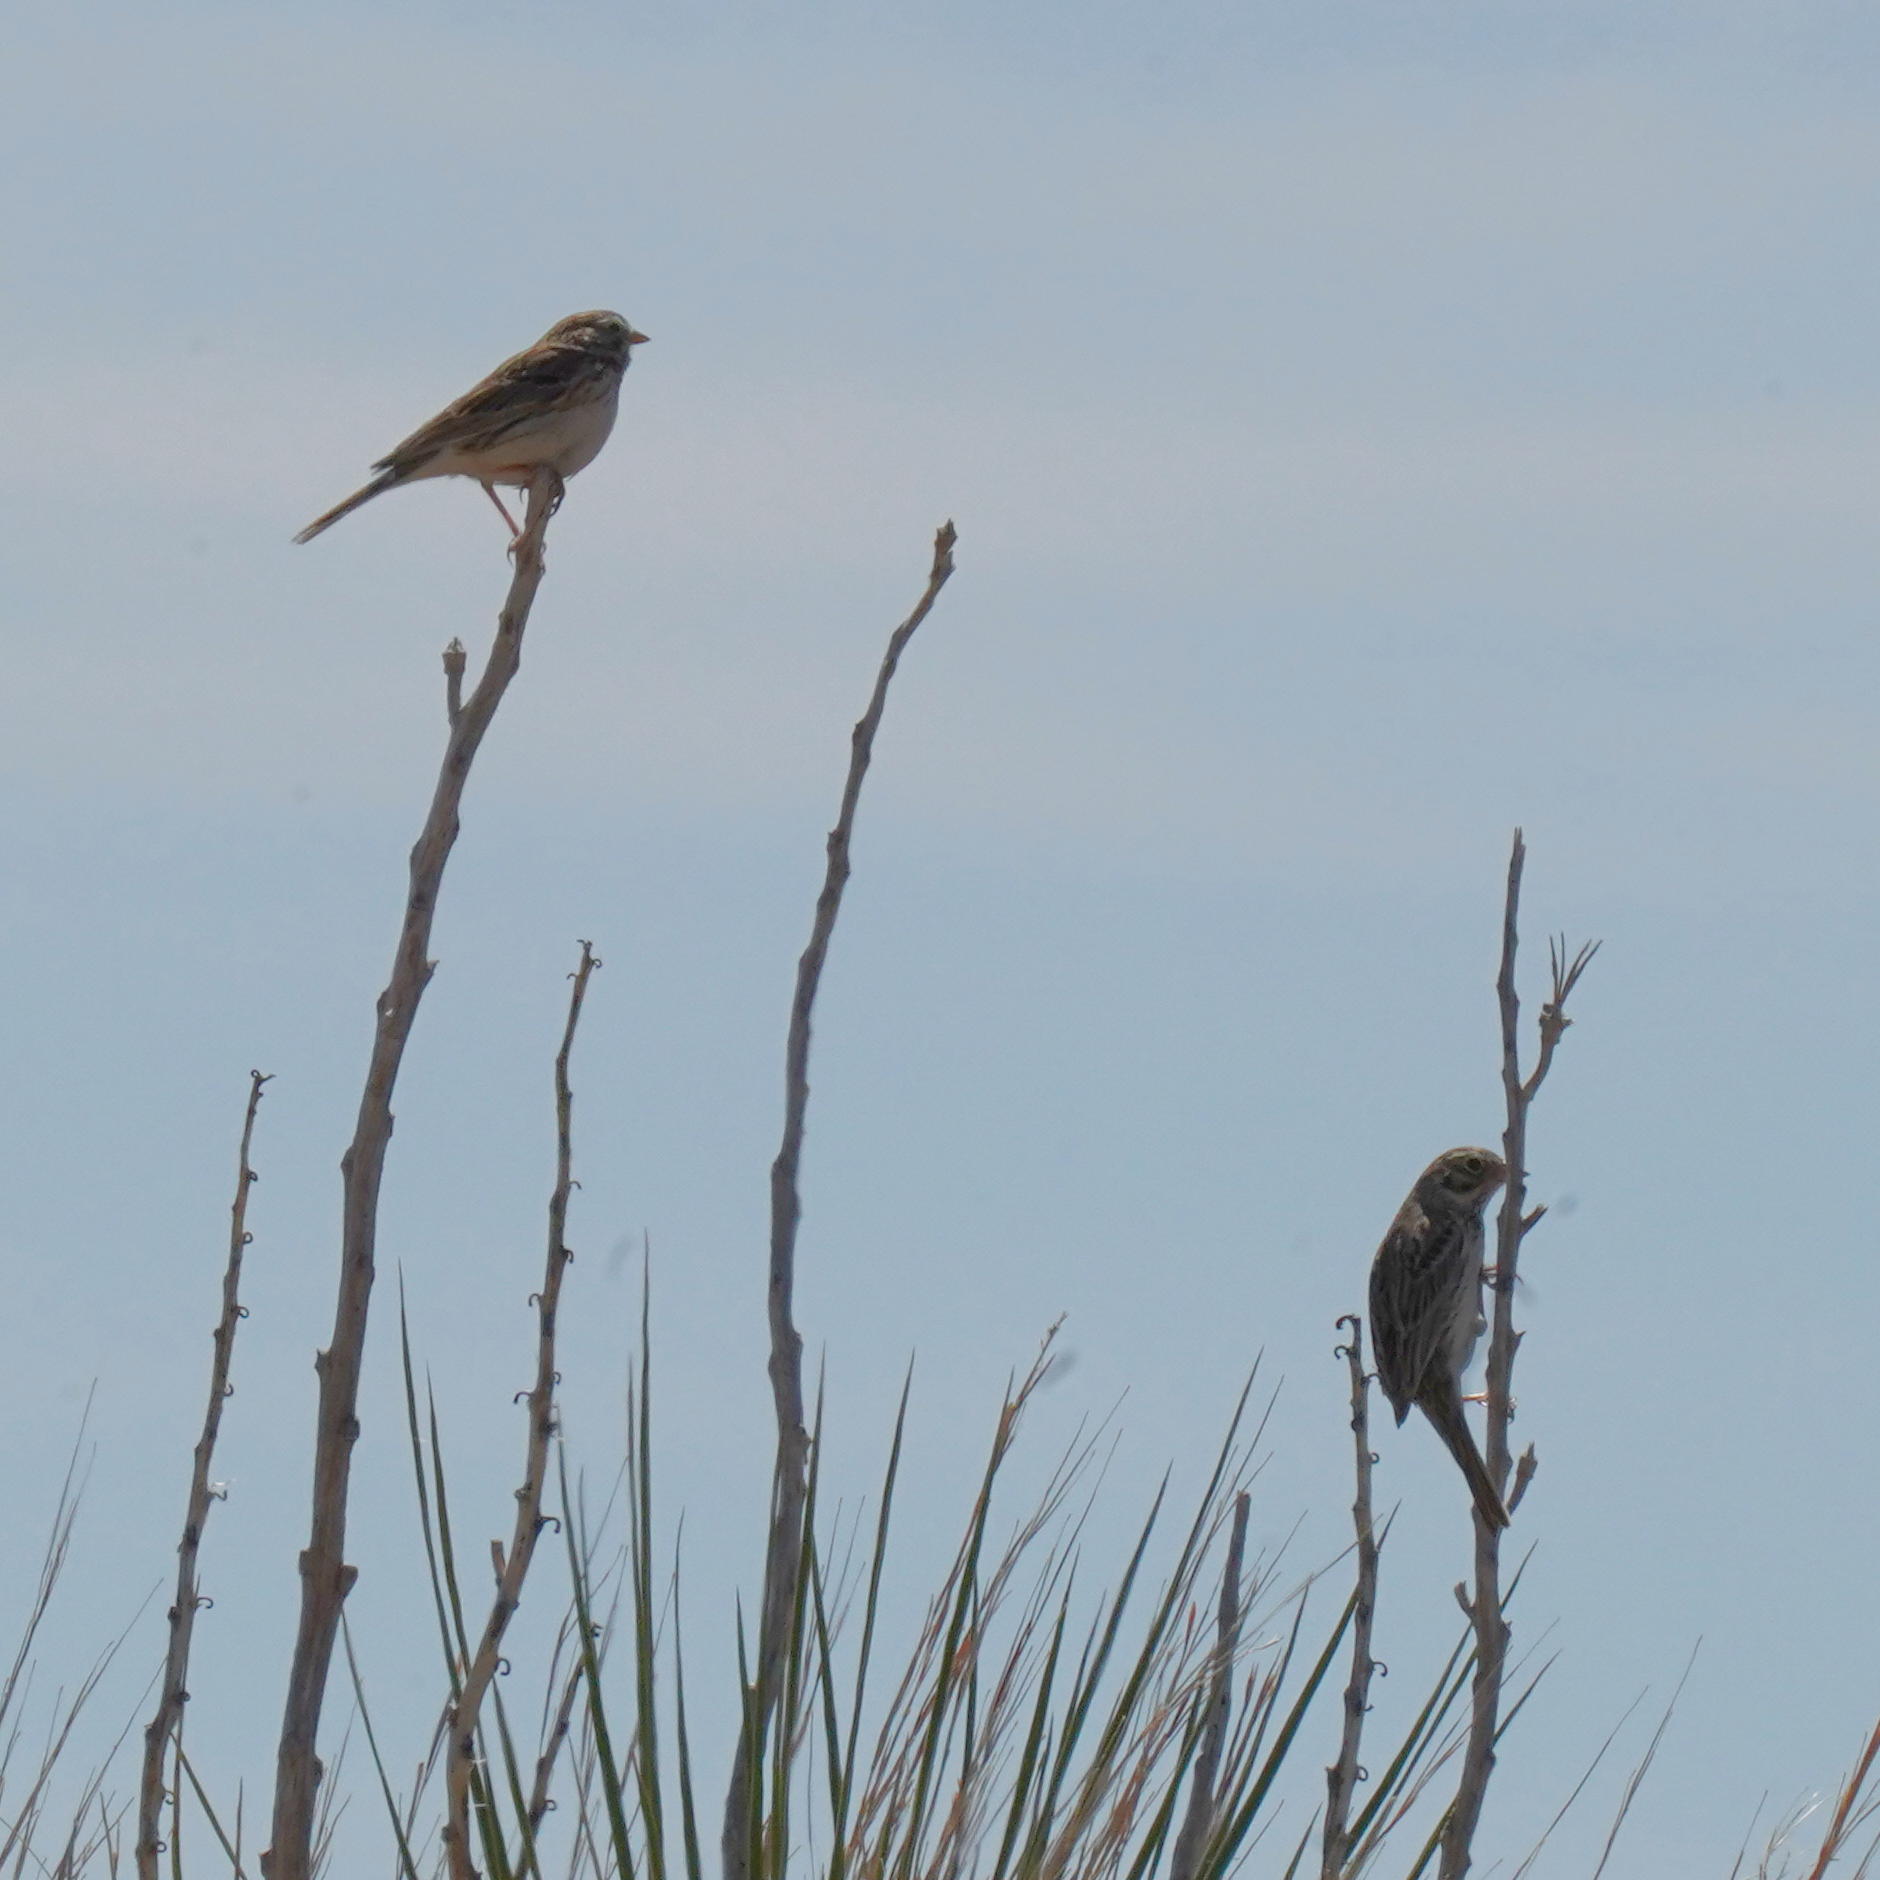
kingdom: Animalia
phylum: Chordata
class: Aves
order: Passeriformes
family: Passerellidae
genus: Pooecetes
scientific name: Pooecetes gramineus
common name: Vesper sparrow
